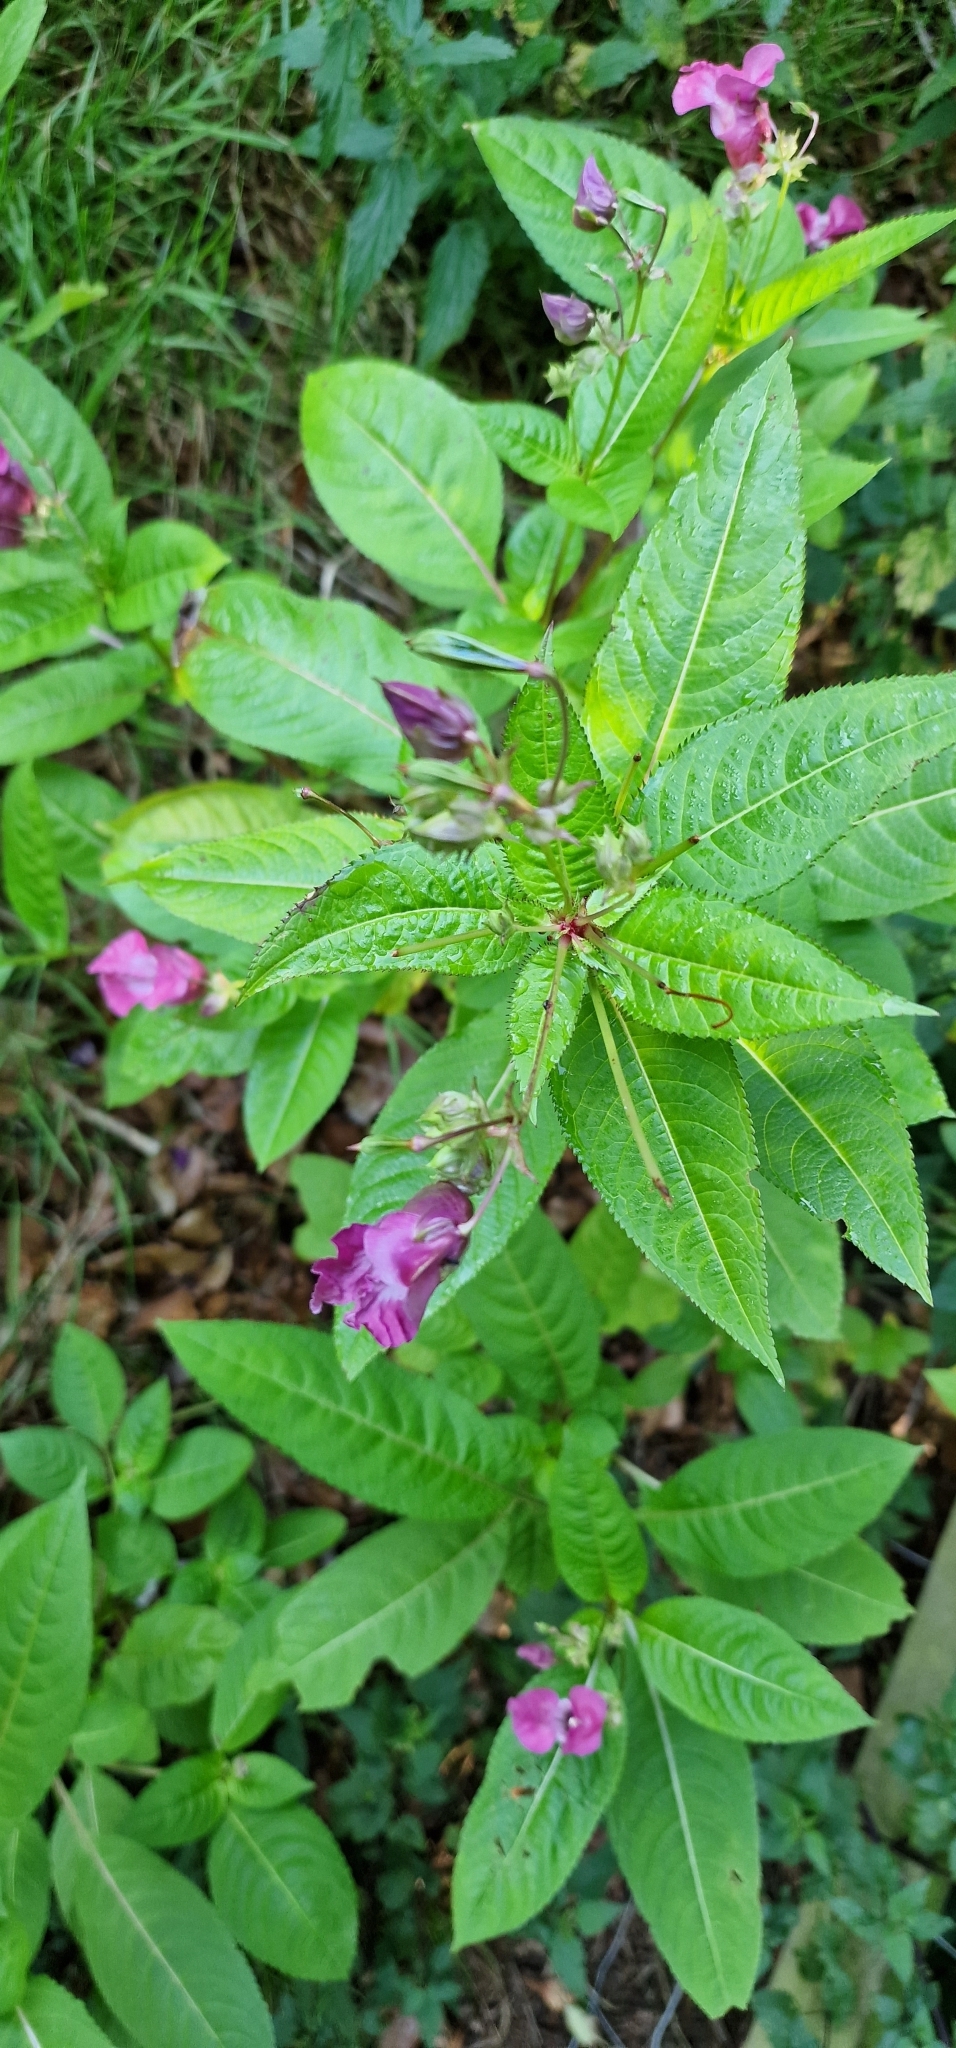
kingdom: Plantae
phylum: Tracheophyta
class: Magnoliopsida
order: Ericales
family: Balsaminaceae
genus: Impatiens
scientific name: Impatiens glandulifera
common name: Himalayan balsam
